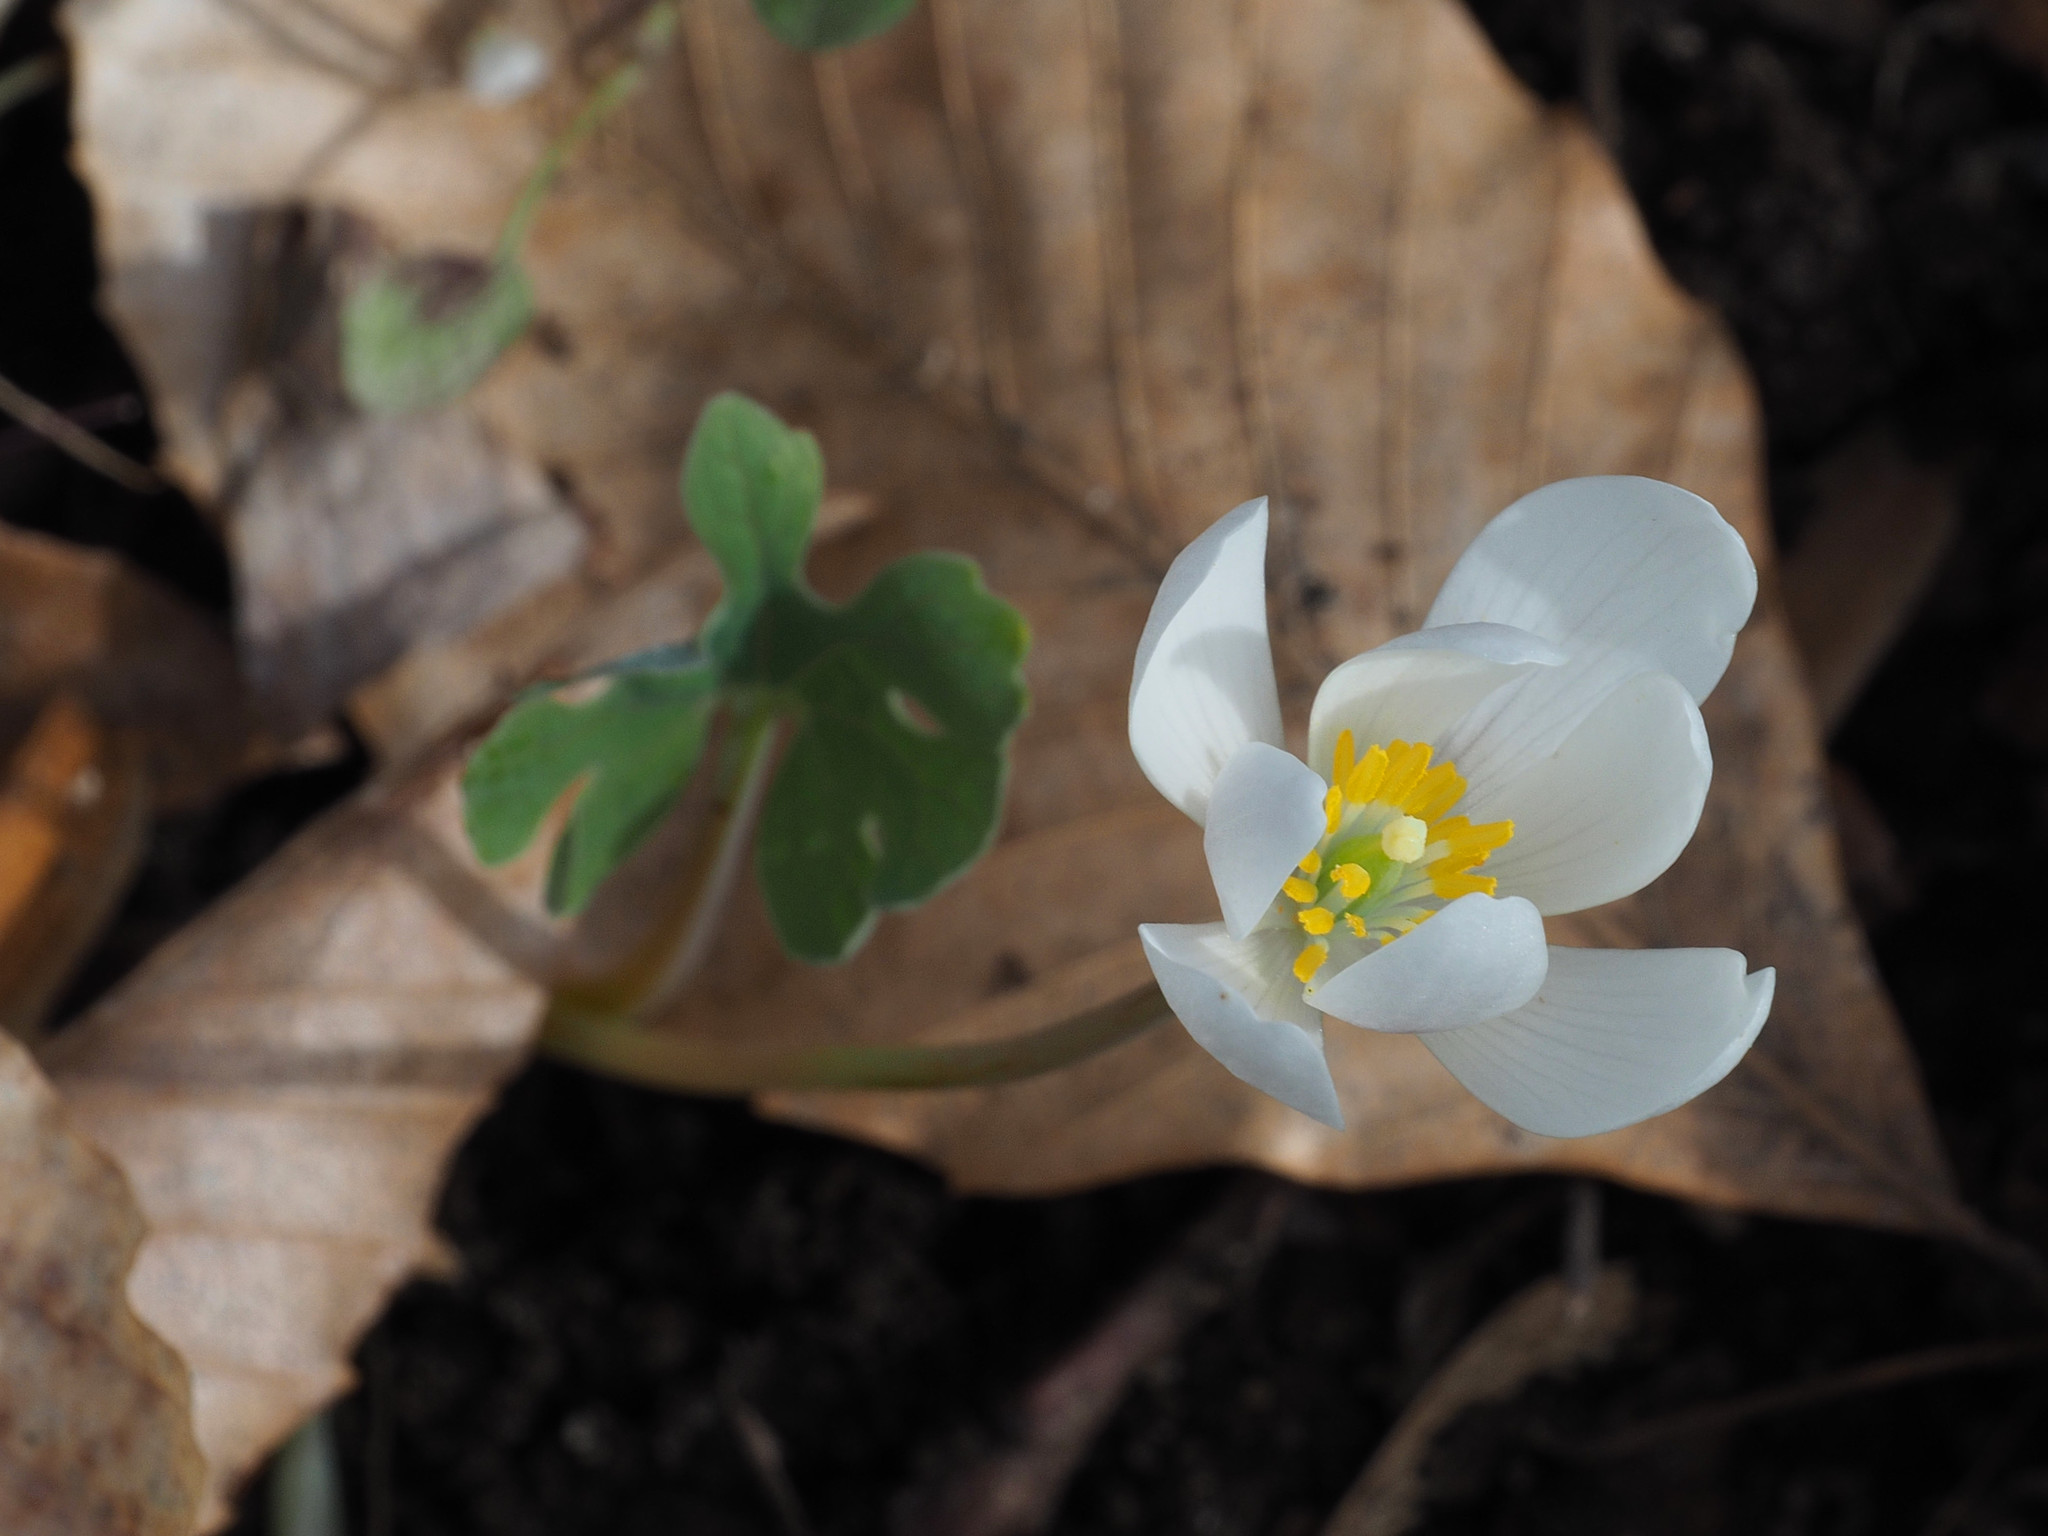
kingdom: Plantae
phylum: Tracheophyta
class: Magnoliopsida
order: Ranunculales
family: Papaveraceae
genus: Sanguinaria
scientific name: Sanguinaria canadensis
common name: Bloodroot
